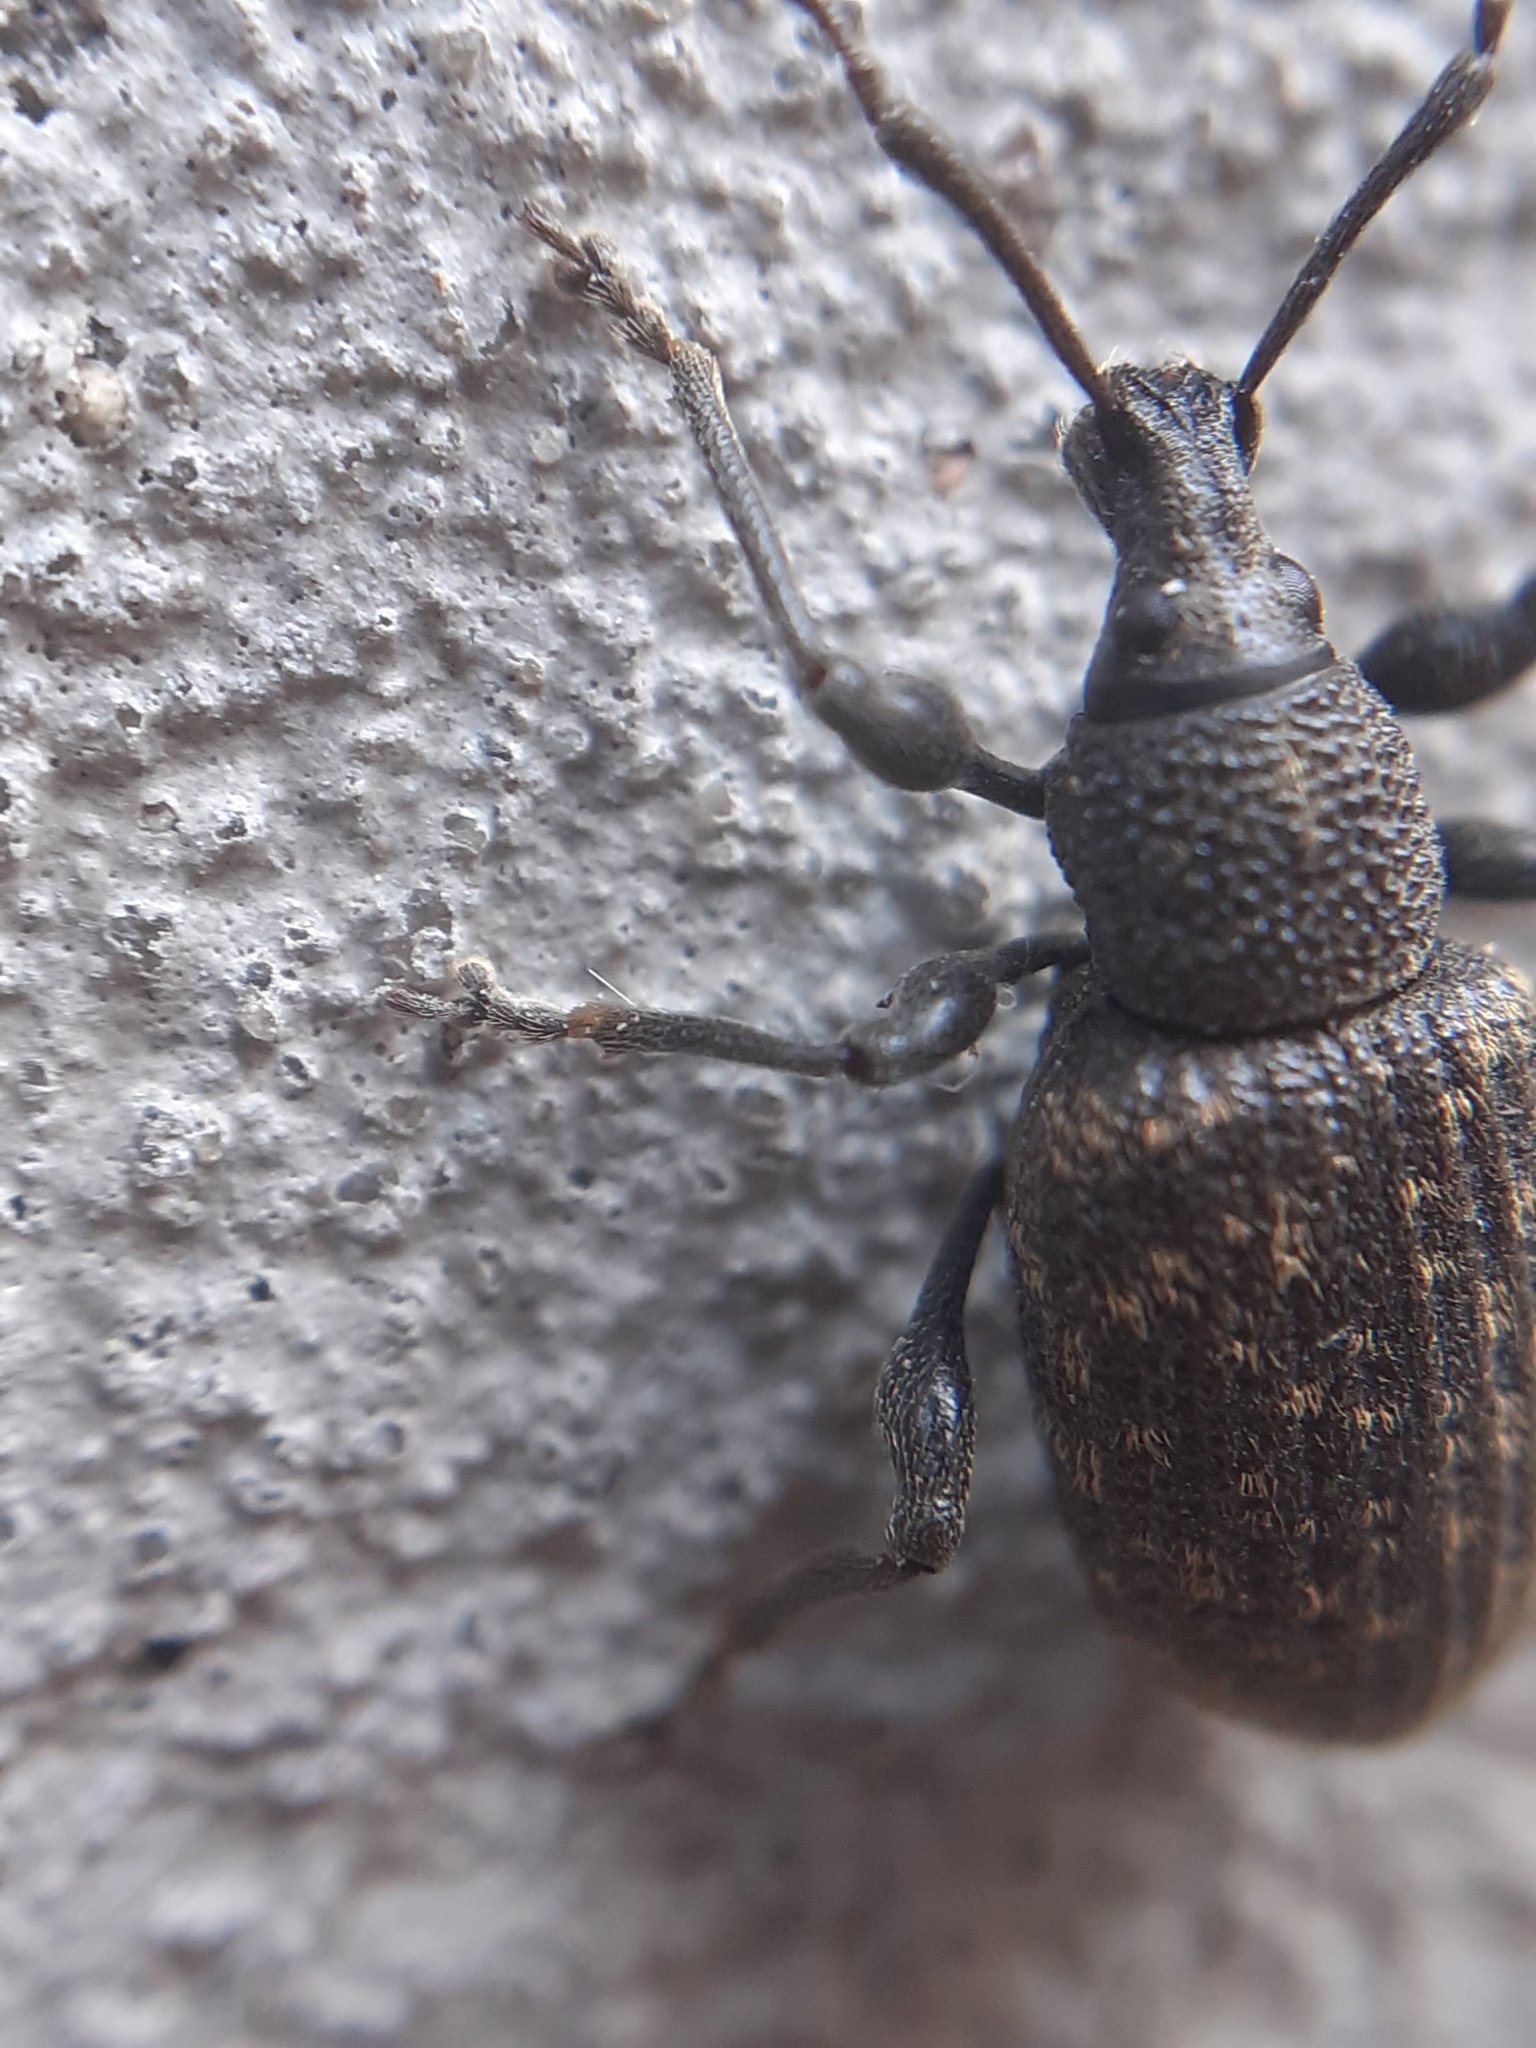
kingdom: Animalia
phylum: Arthropoda
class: Insecta
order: Coleoptera
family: Curculionidae
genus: Otiorhynchus
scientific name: Otiorhynchus sulcatus
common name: Black vine weevil
